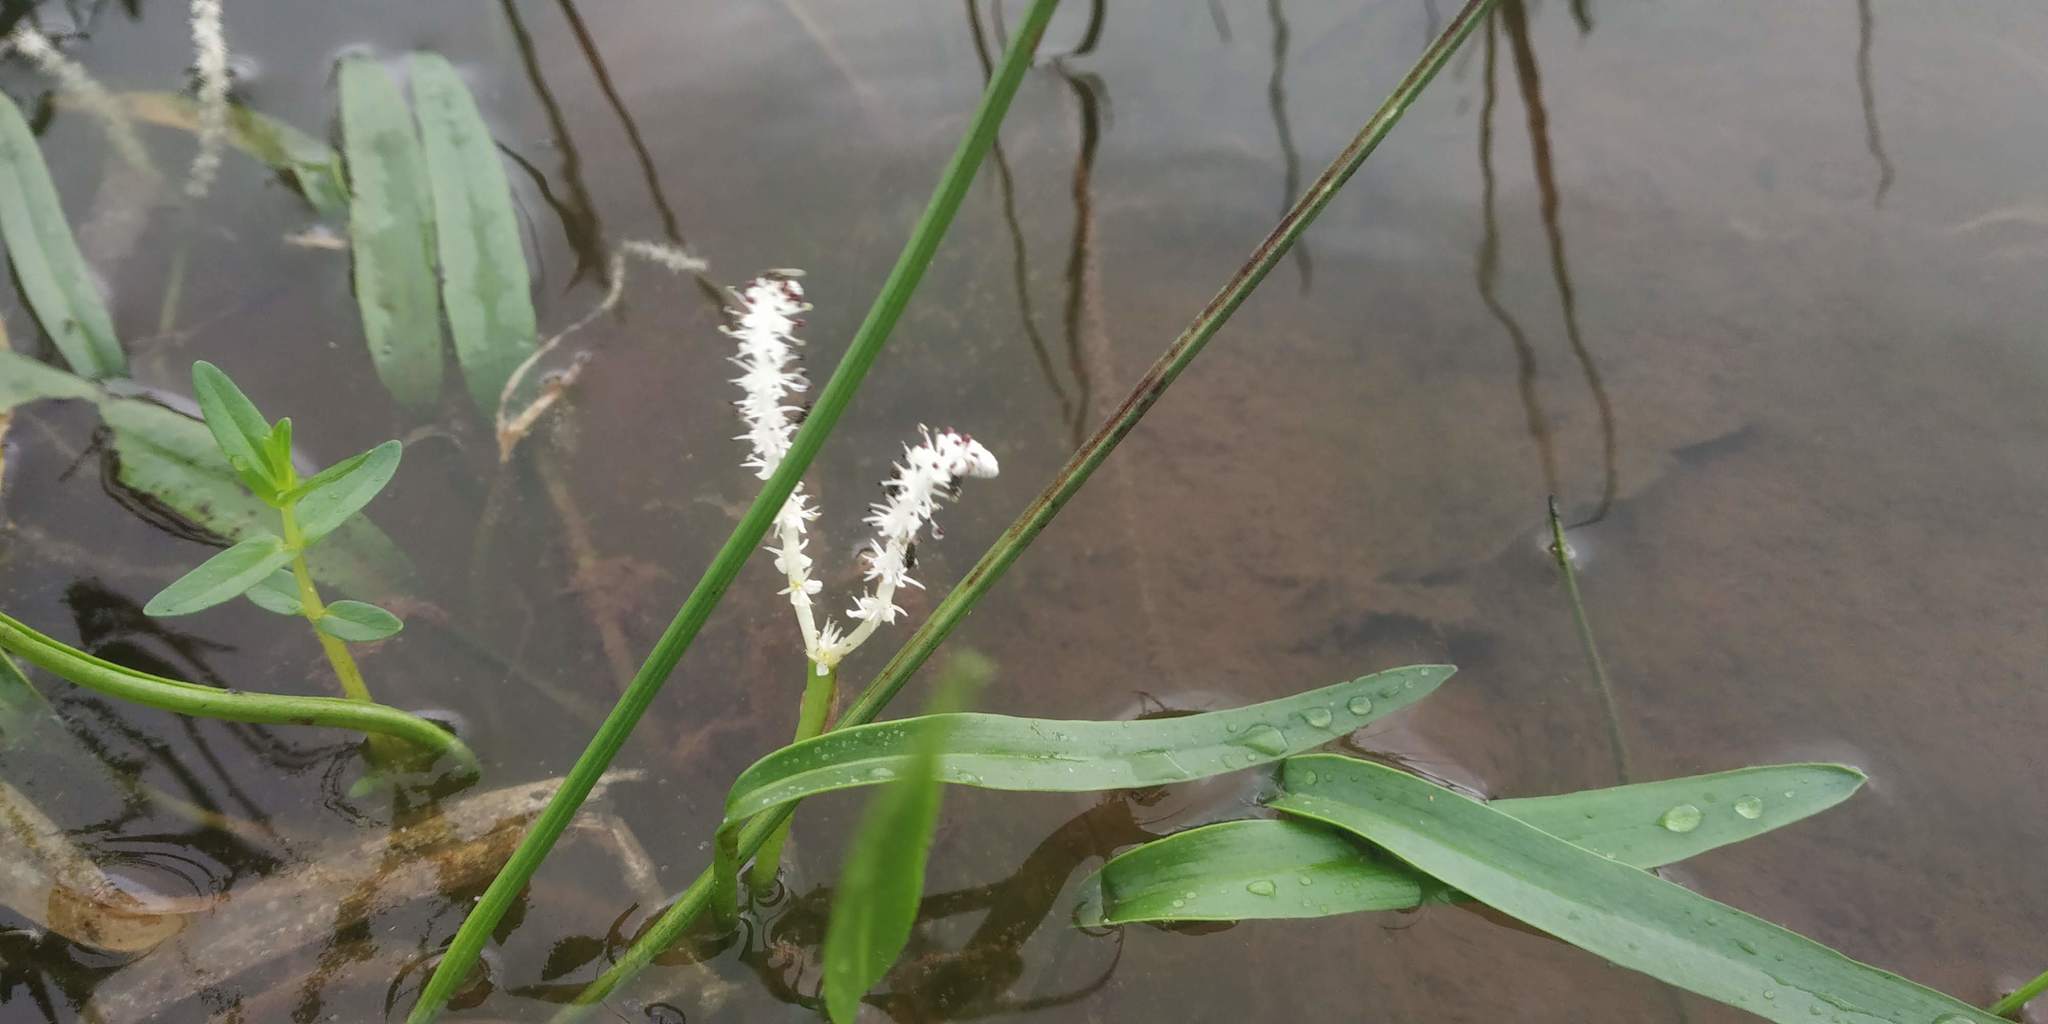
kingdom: Plantae
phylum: Tracheophyta
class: Liliopsida
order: Alismatales
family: Aponogetonaceae
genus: Aponogeton
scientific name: Aponogeton satarensis
